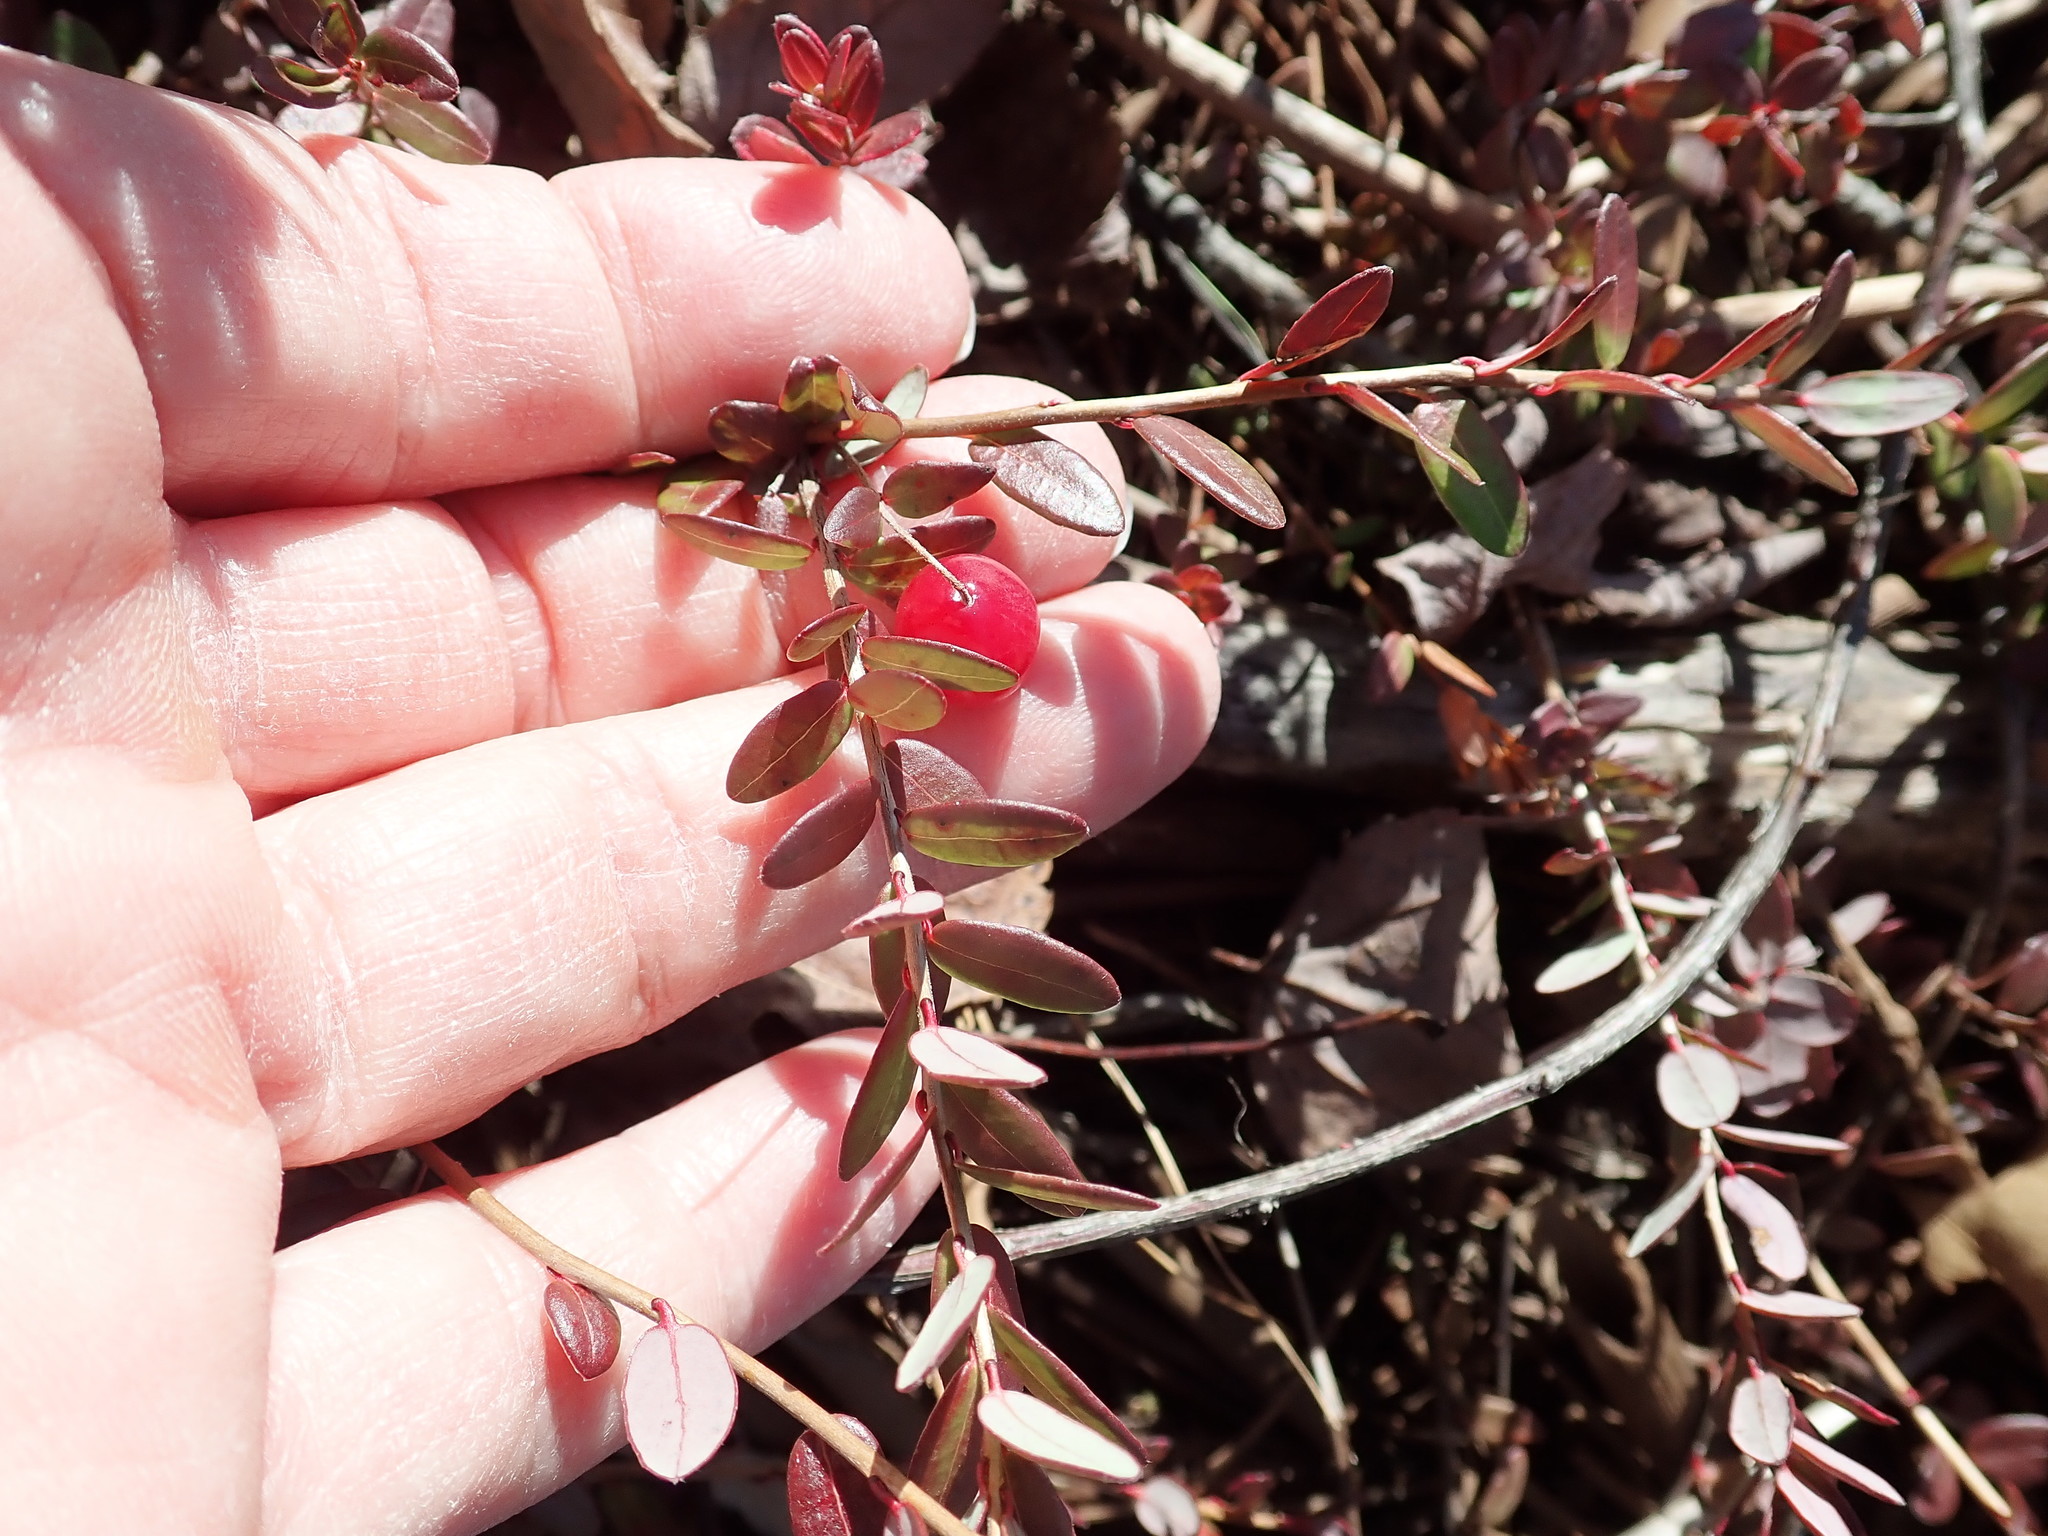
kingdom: Plantae
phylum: Tracheophyta
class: Magnoliopsida
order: Ericales
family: Ericaceae
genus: Vaccinium
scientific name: Vaccinium macrocarpon
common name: American cranberry
